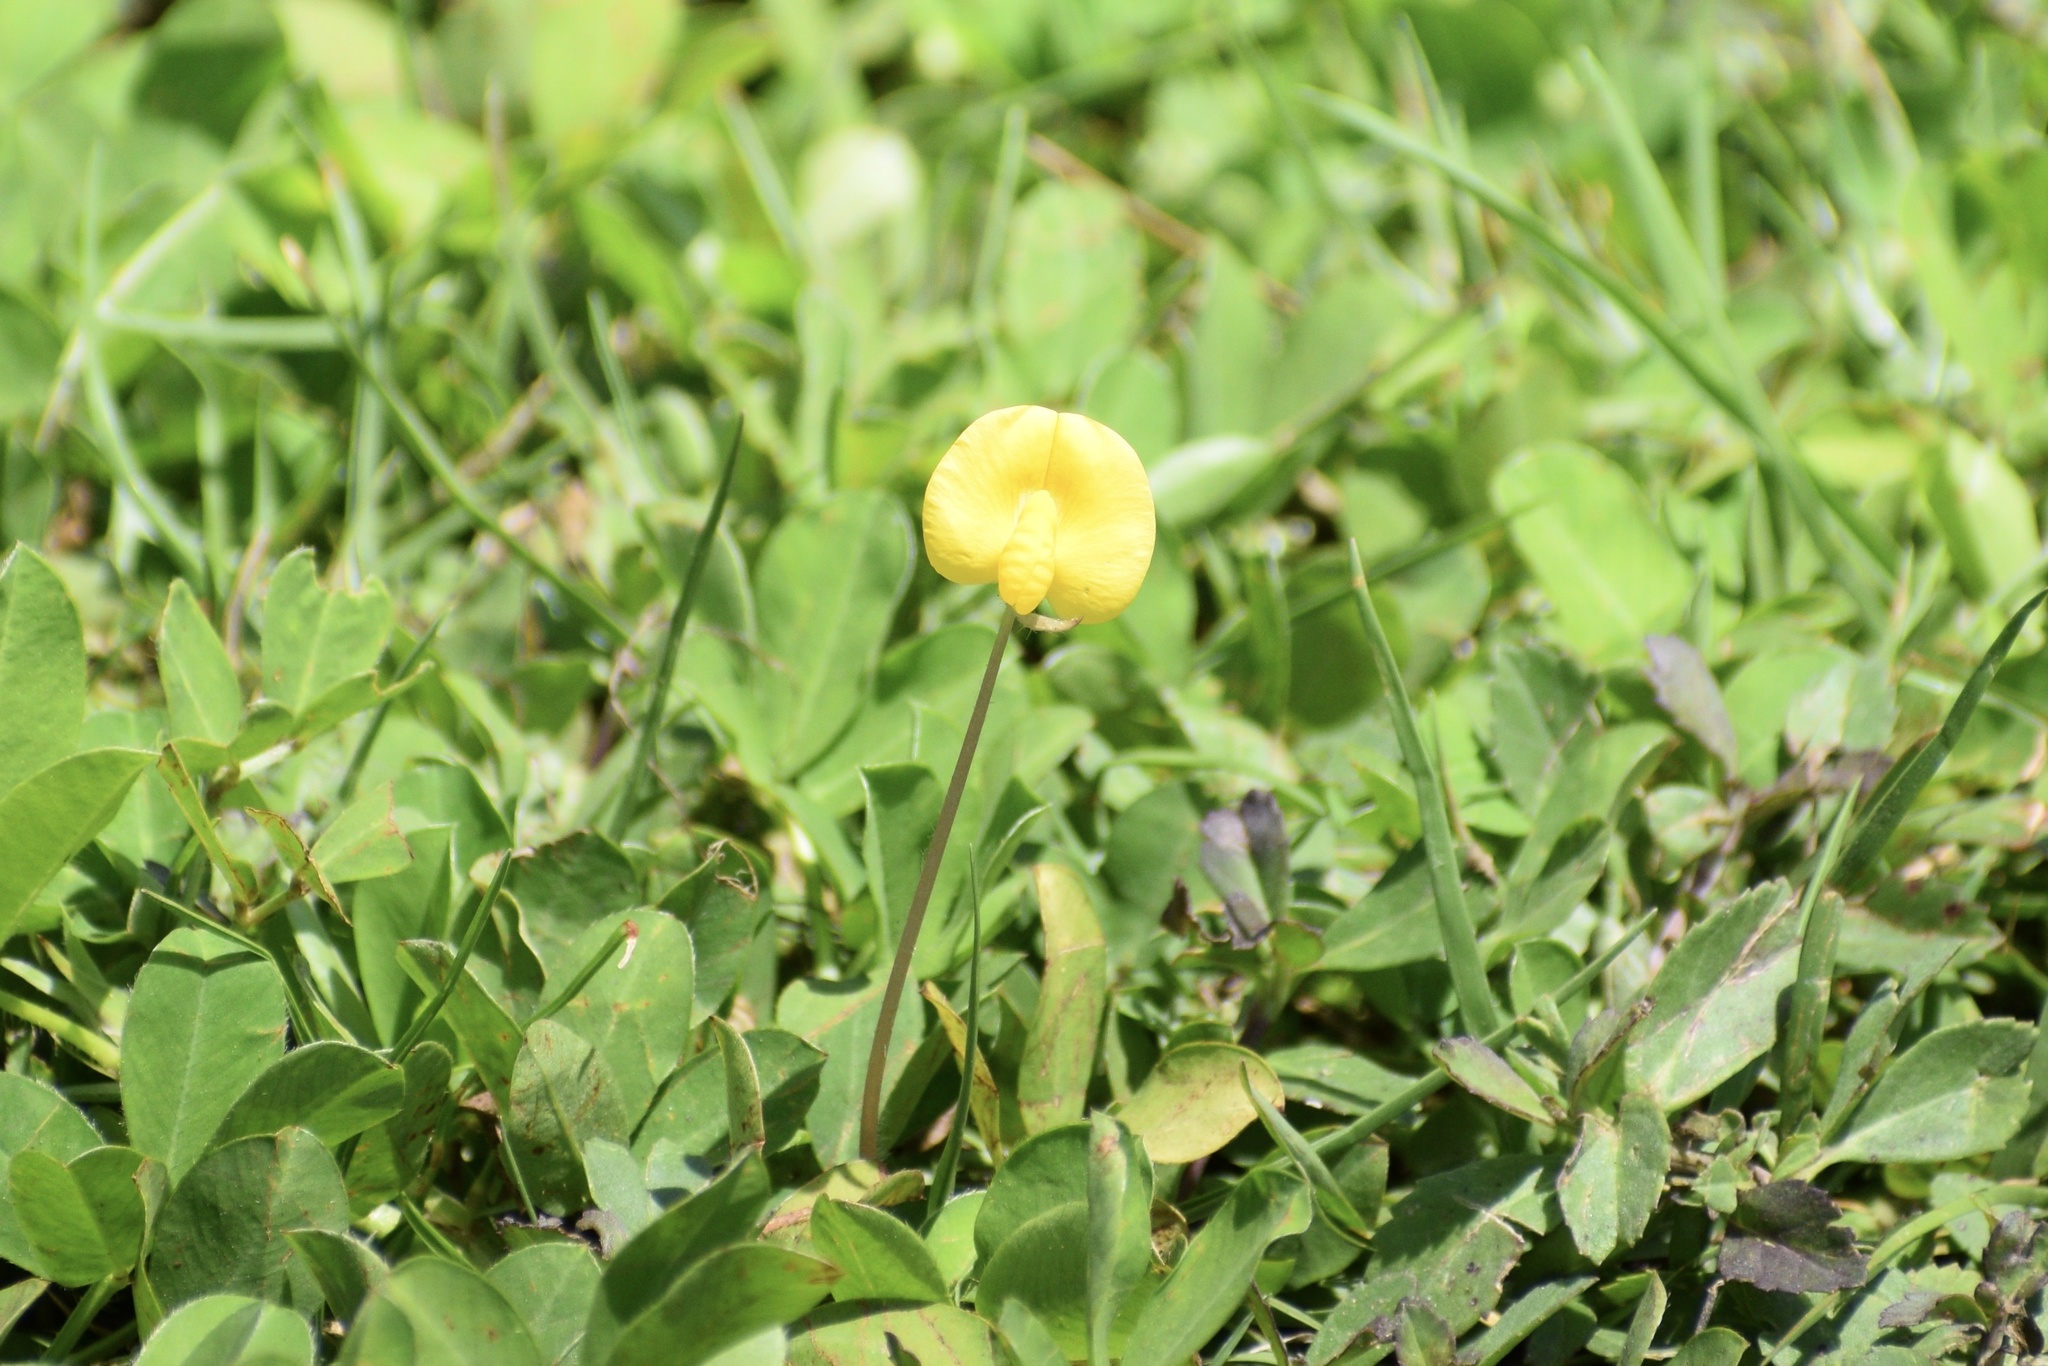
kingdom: Plantae
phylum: Tracheophyta
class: Magnoliopsida
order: Fabales
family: Fabaceae
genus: Arachis
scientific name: Arachis pintoi
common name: Pinto peanut
